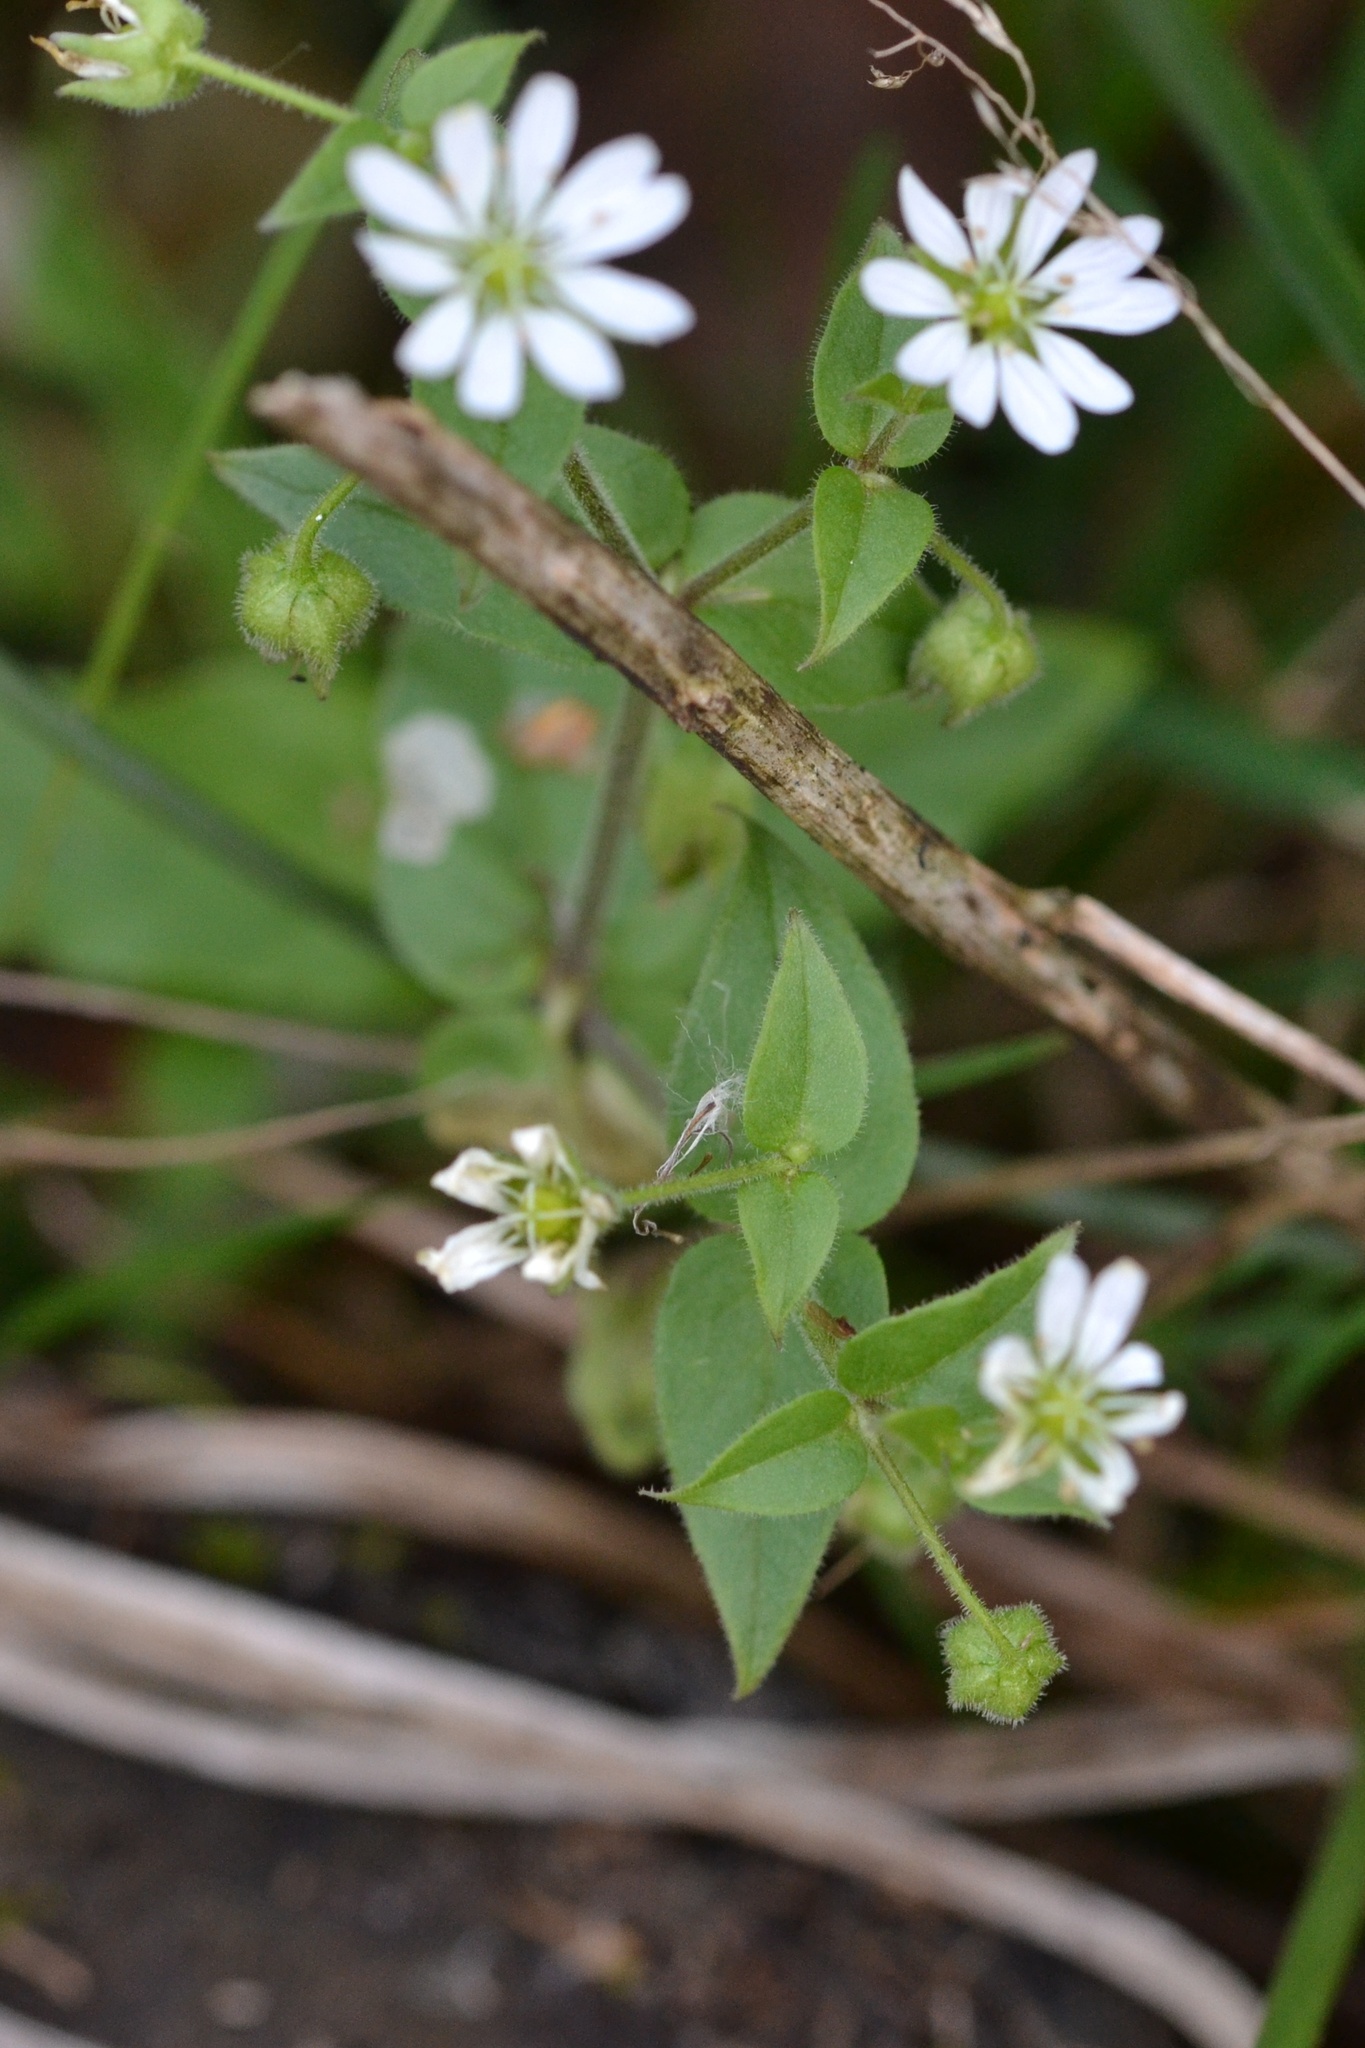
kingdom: Plantae
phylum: Tracheophyta
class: Magnoliopsida
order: Caryophyllales
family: Caryophyllaceae
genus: Stellaria
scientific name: Stellaria aquatica
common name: Water chickweed
